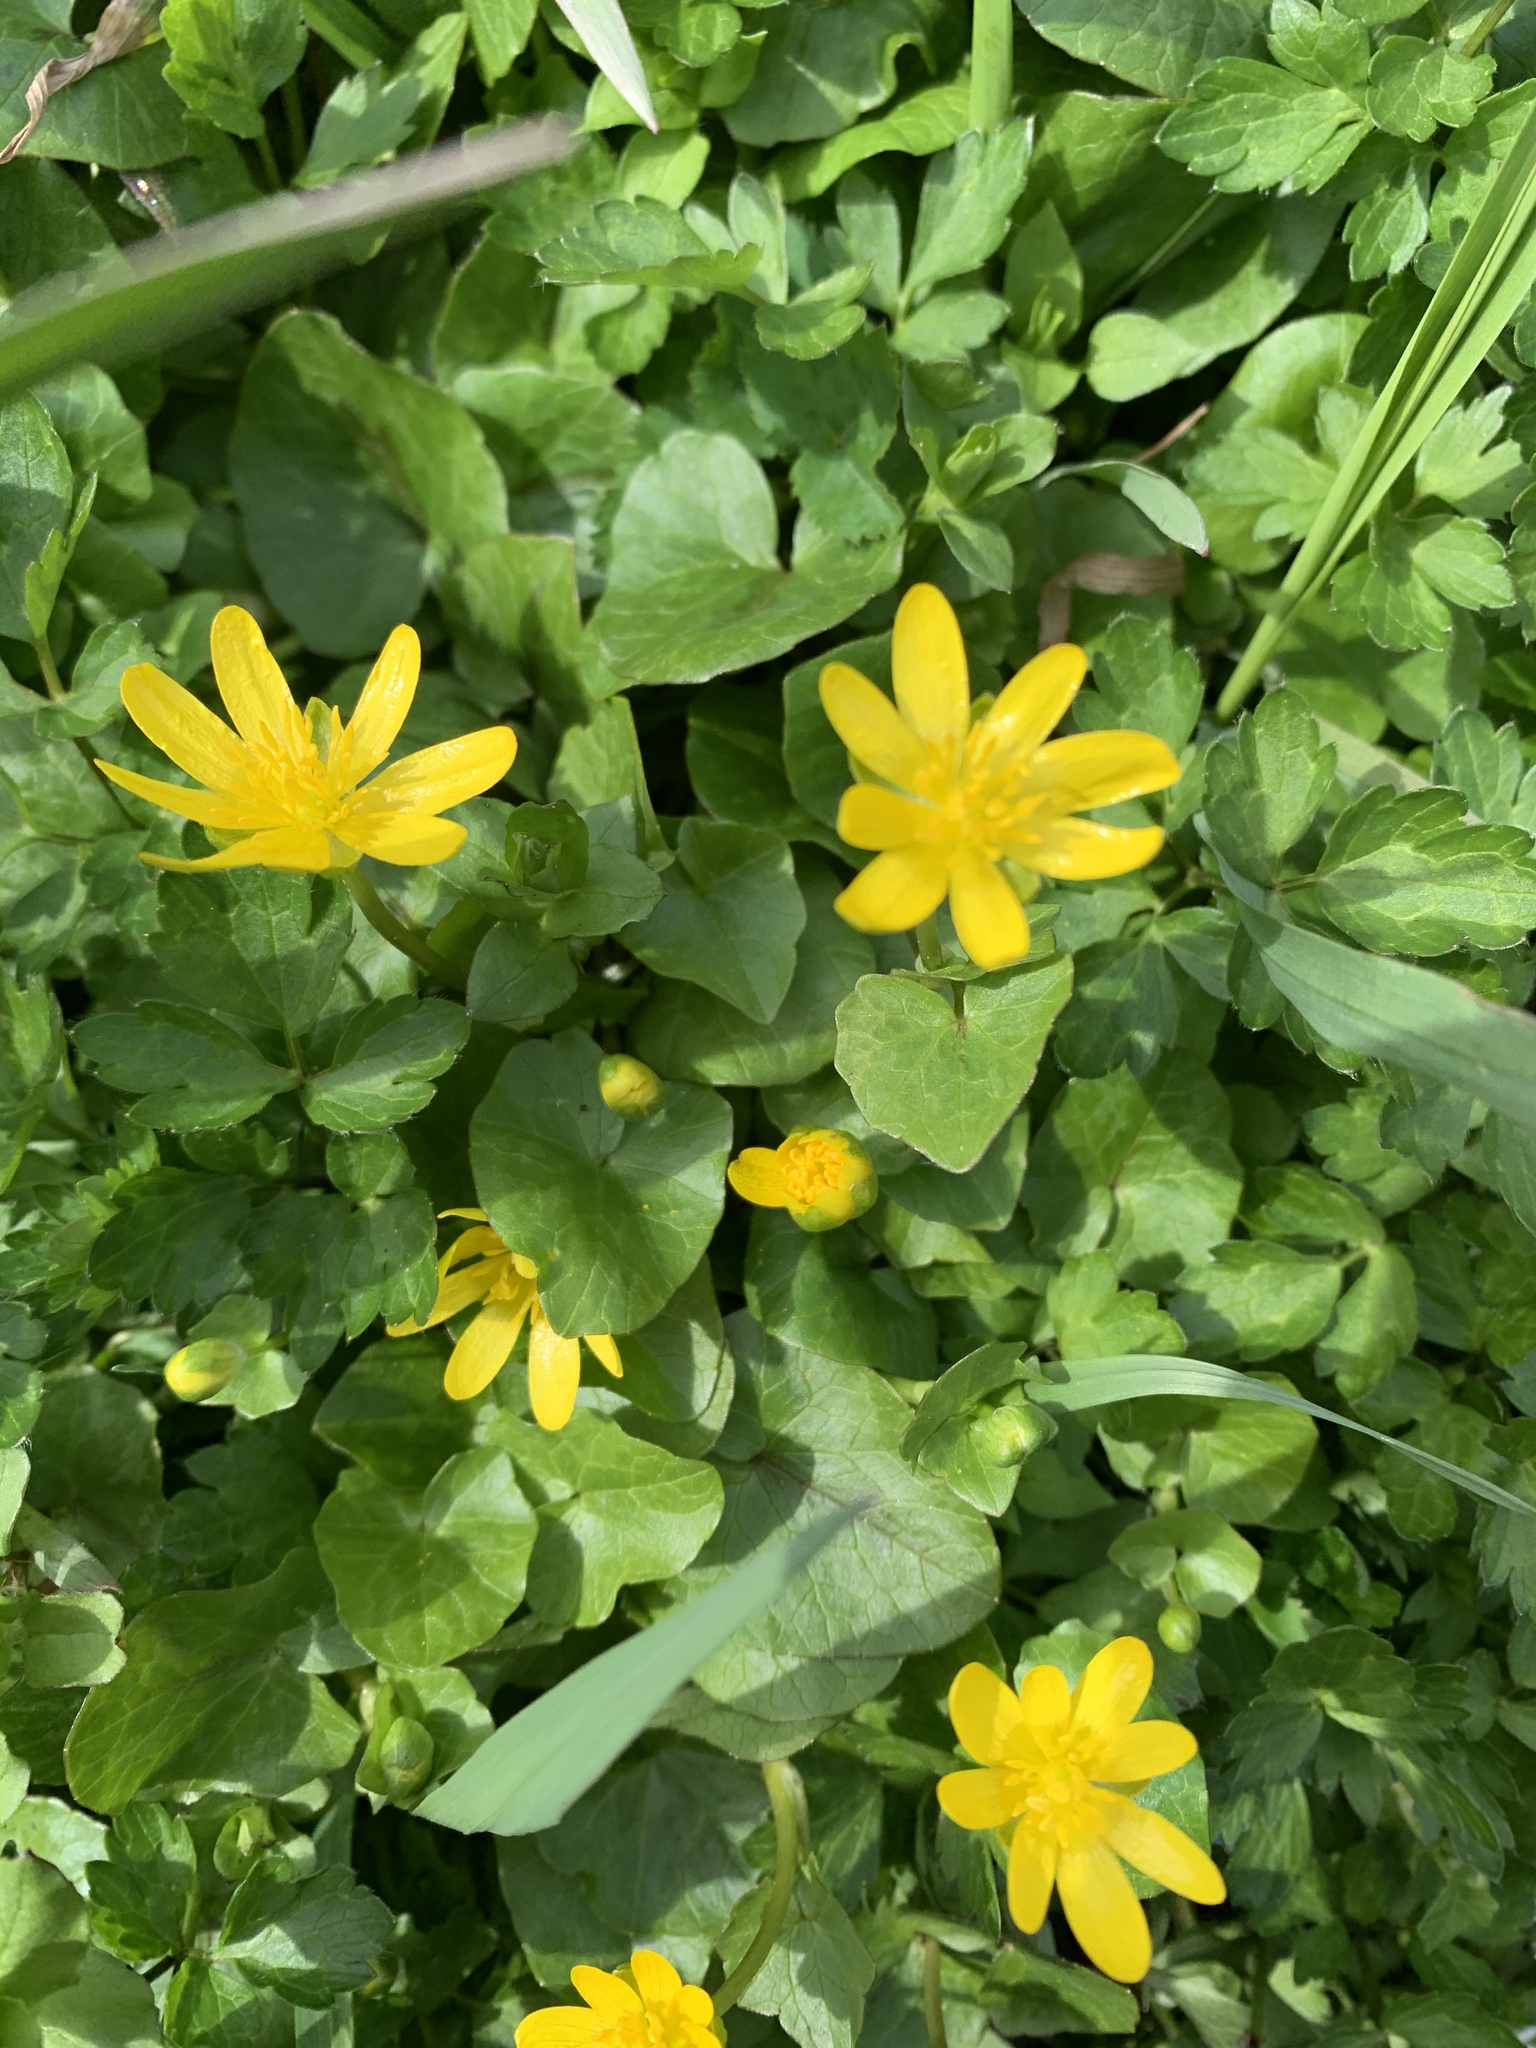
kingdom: Plantae
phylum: Tracheophyta
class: Magnoliopsida
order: Ranunculales
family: Ranunculaceae
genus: Ficaria
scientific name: Ficaria verna
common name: Lesser celandine
